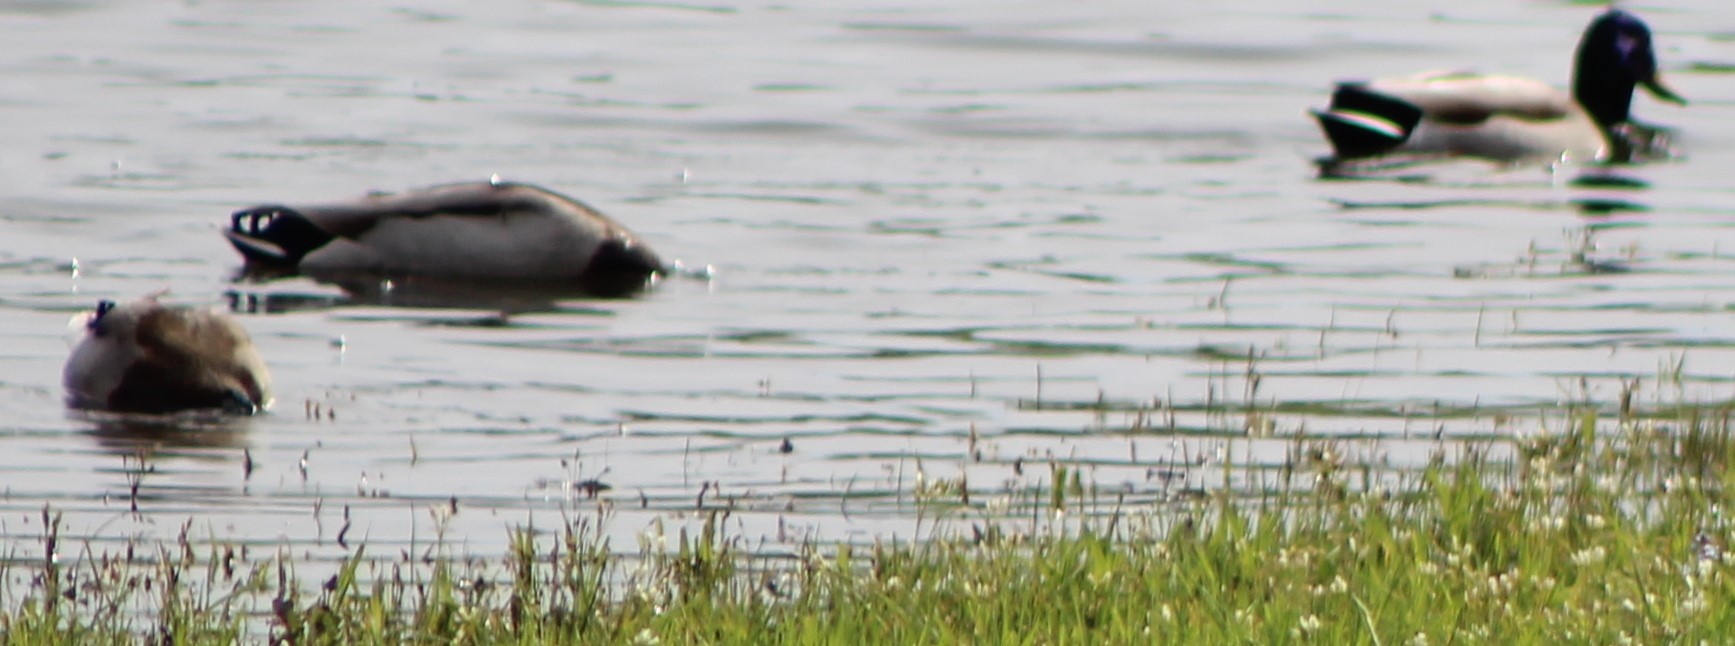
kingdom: Animalia
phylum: Chordata
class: Aves
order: Anseriformes
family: Anatidae
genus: Anas
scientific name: Anas platyrhynchos
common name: Mallard
